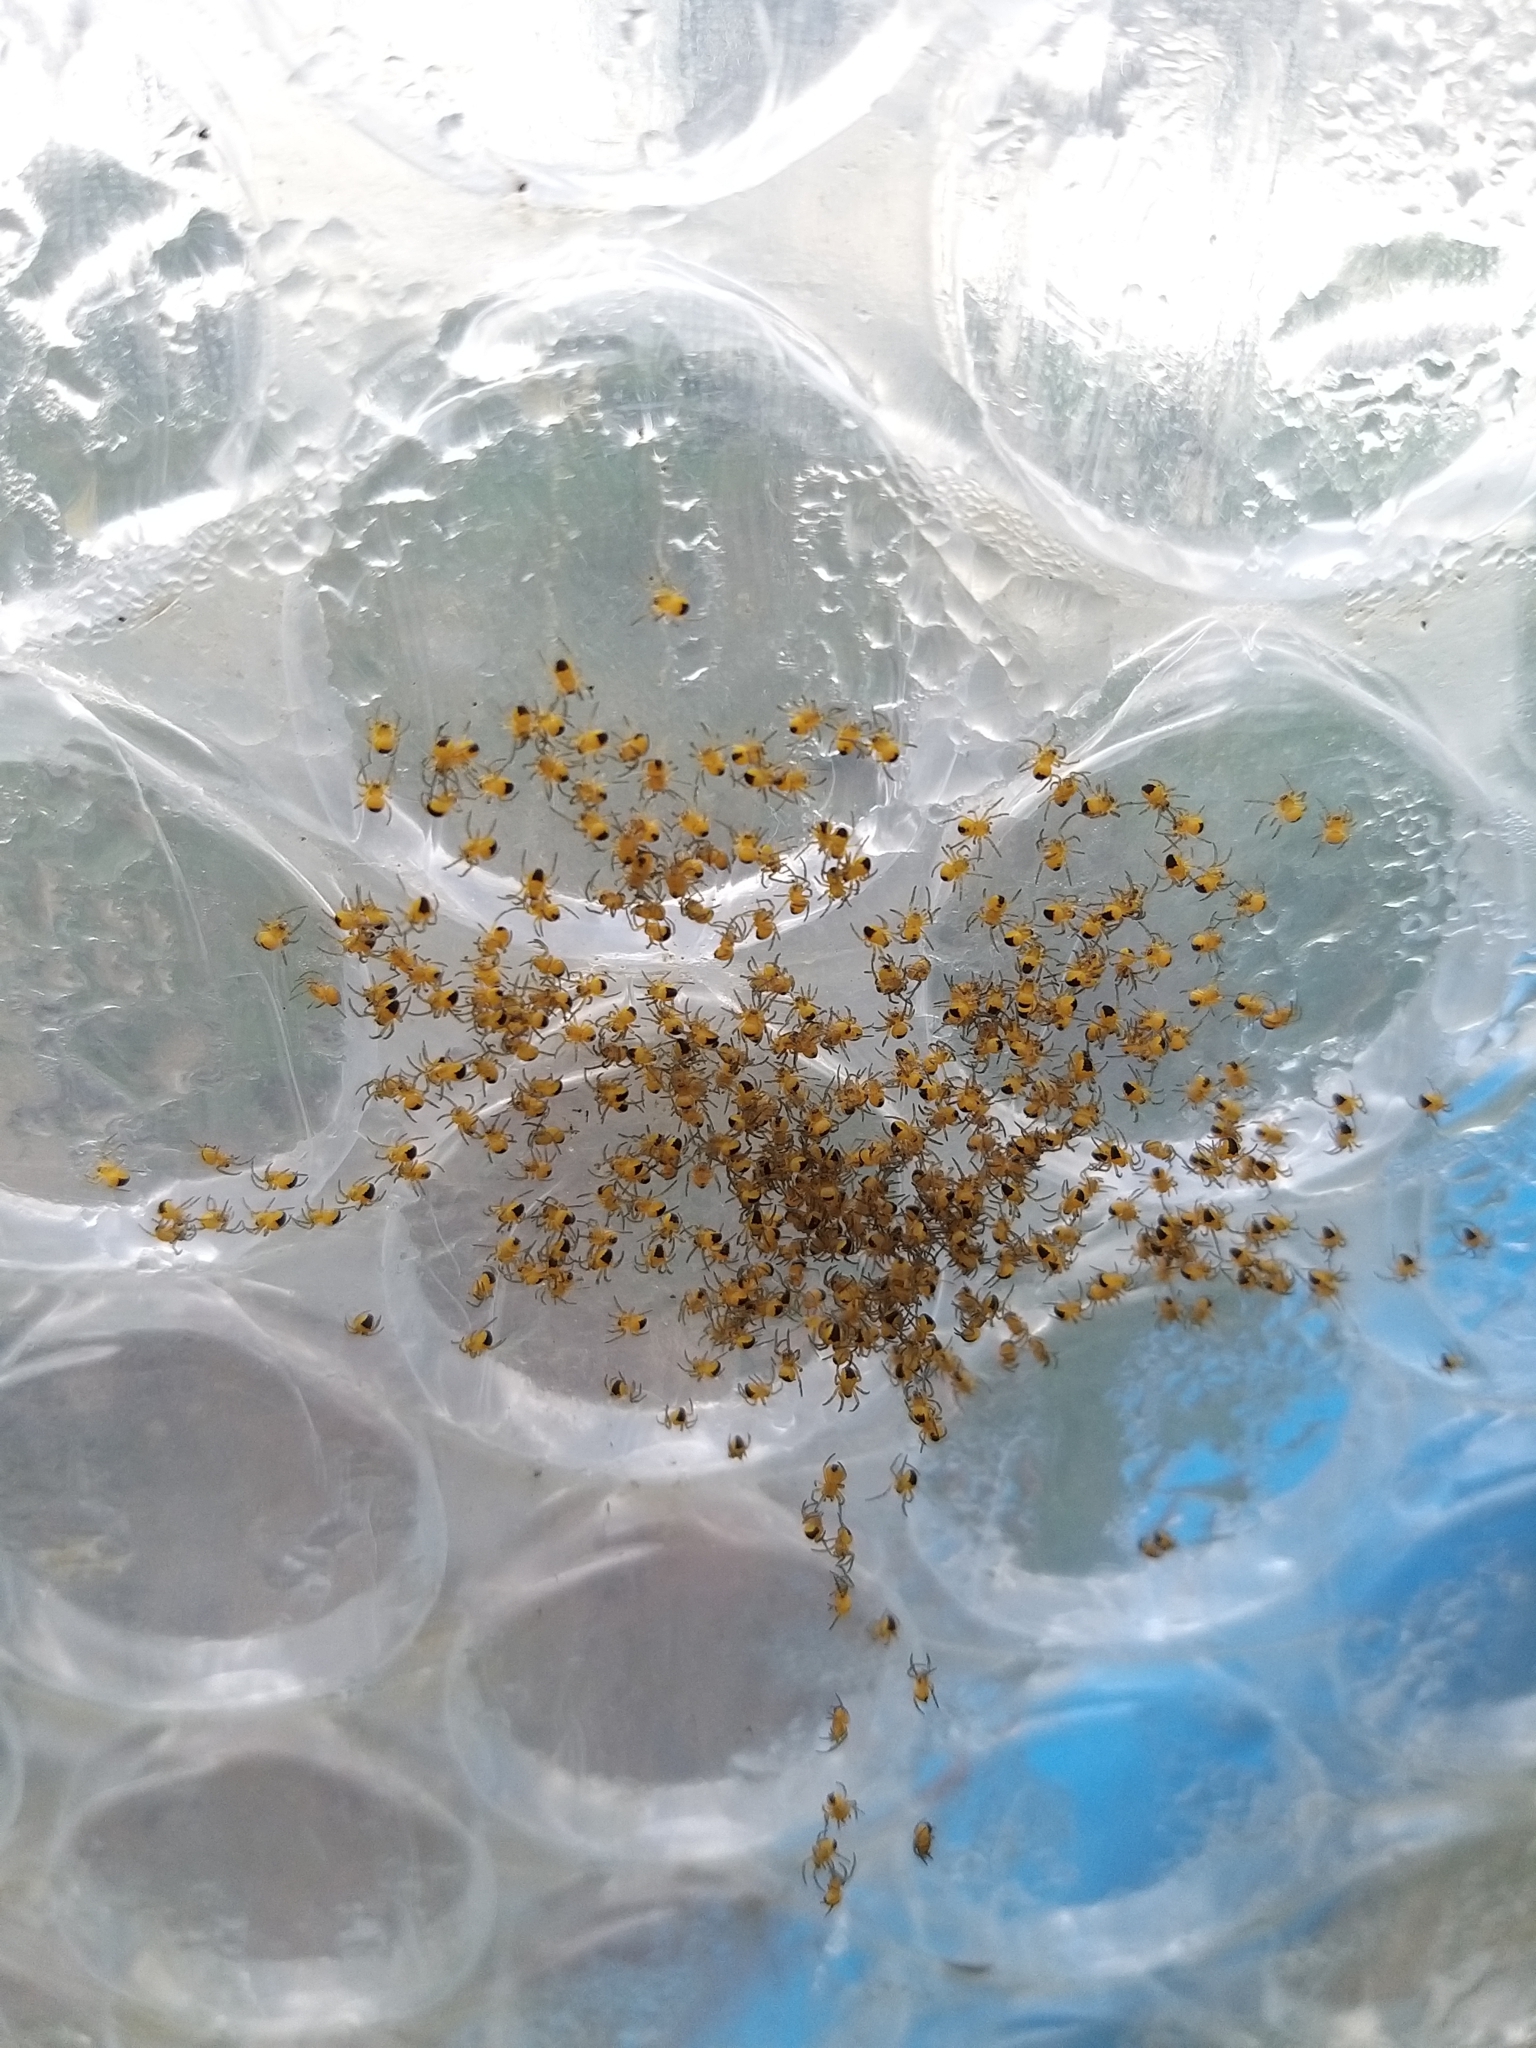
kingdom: Animalia
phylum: Arthropoda
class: Arachnida
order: Araneae
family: Araneidae
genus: Araneus
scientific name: Araneus diadematus
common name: Cross orbweaver
